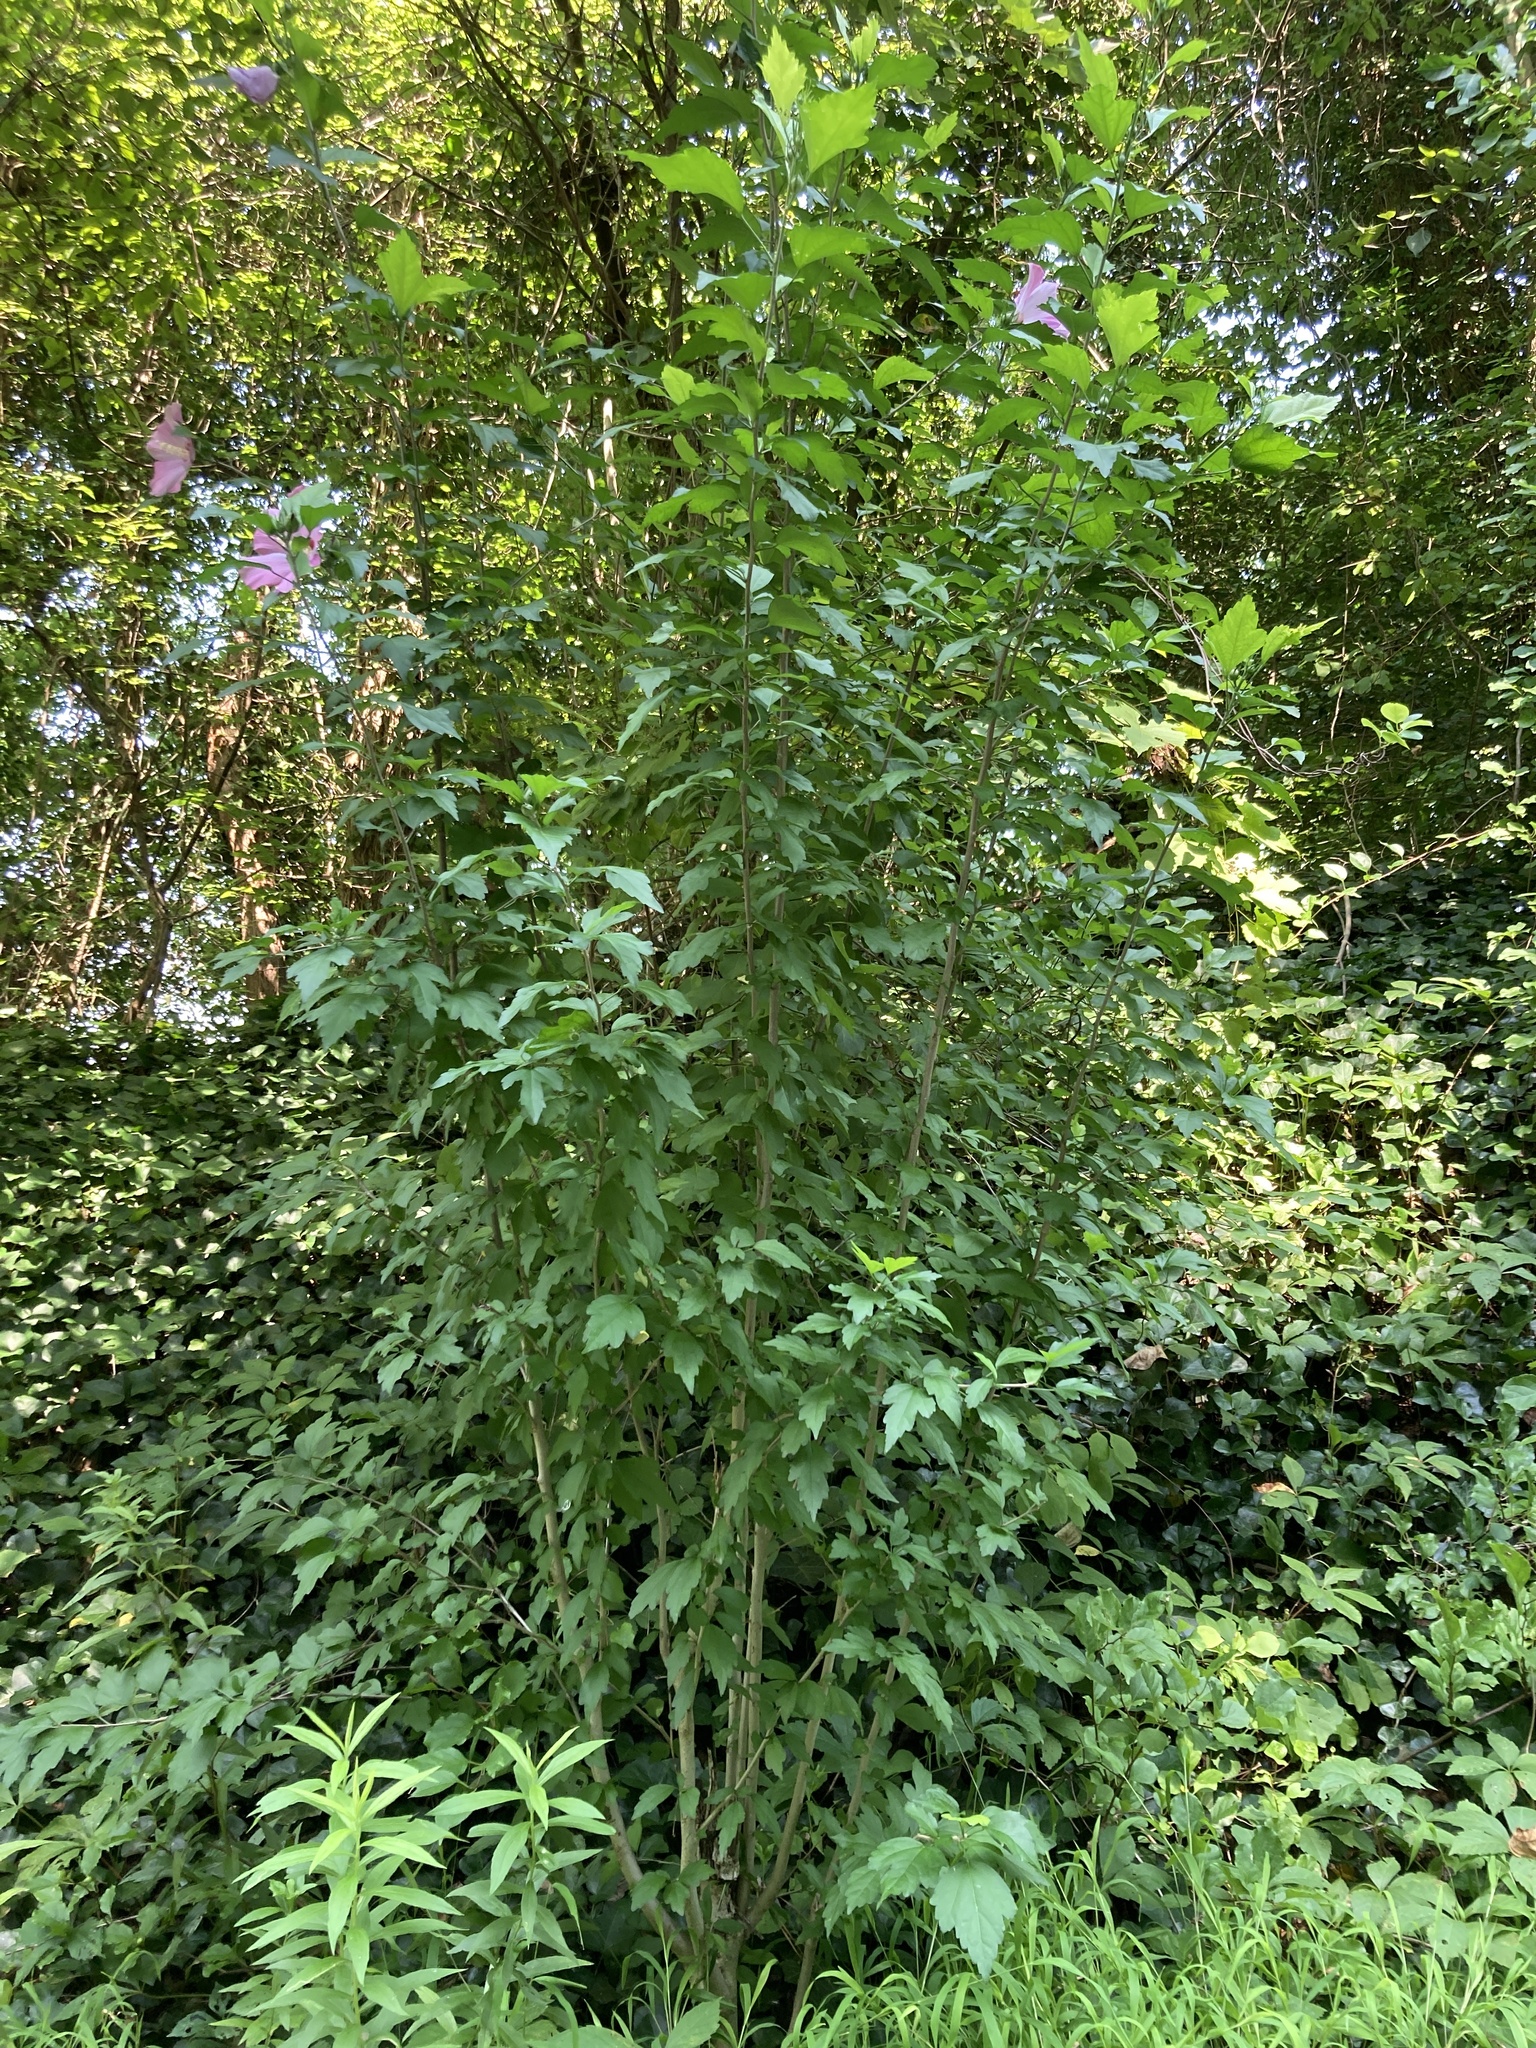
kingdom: Plantae
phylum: Tracheophyta
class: Magnoliopsida
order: Malvales
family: Malvaceae
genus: Hibiscus
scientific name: Hibiscus syriacus
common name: Syrian ketmia
